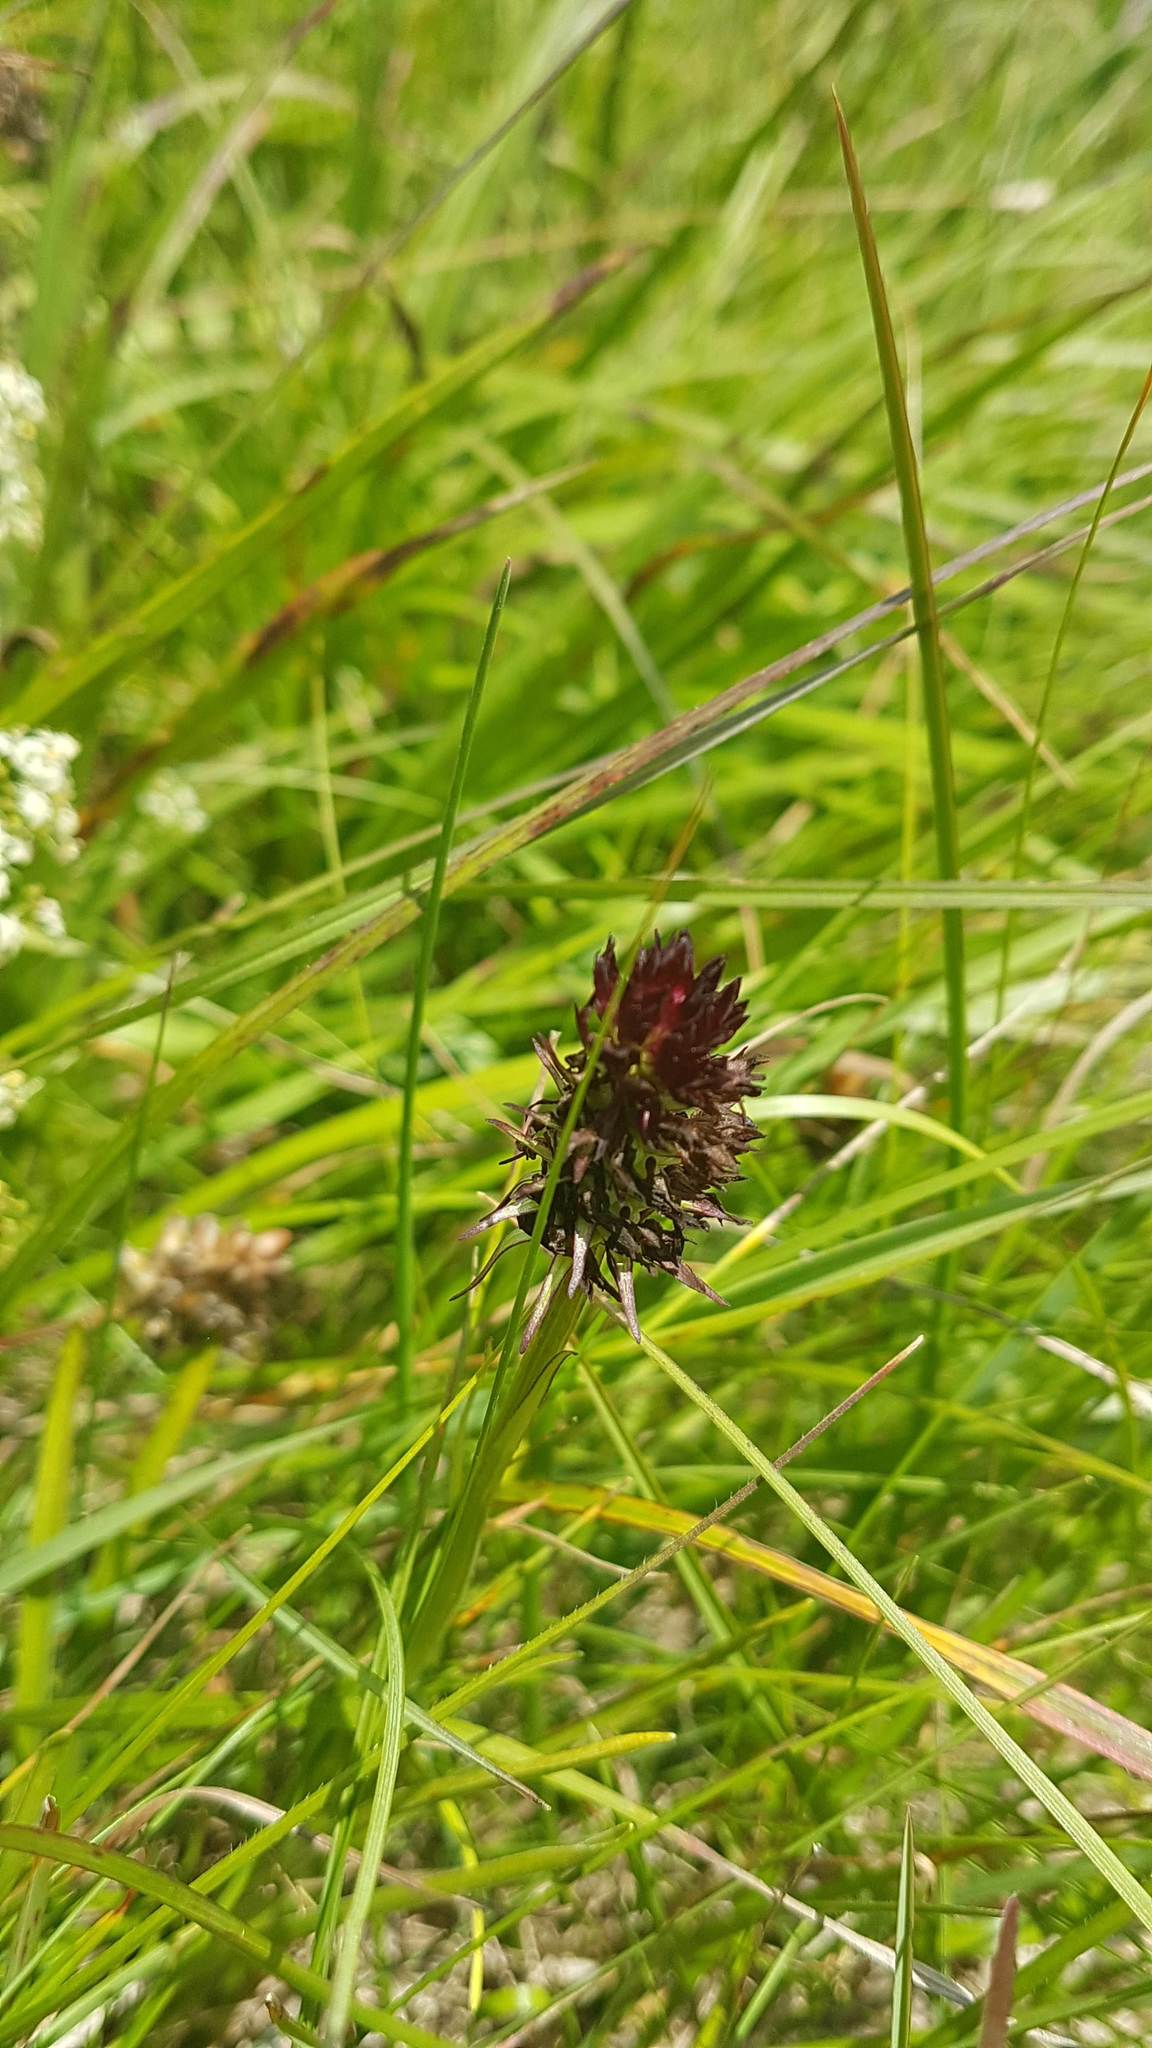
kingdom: Plantae
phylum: Tracheophyta
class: Liliopsida
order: Asparagales
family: Orchidaceae
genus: Gymnadenia
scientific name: Gymnadenia rhellicani
